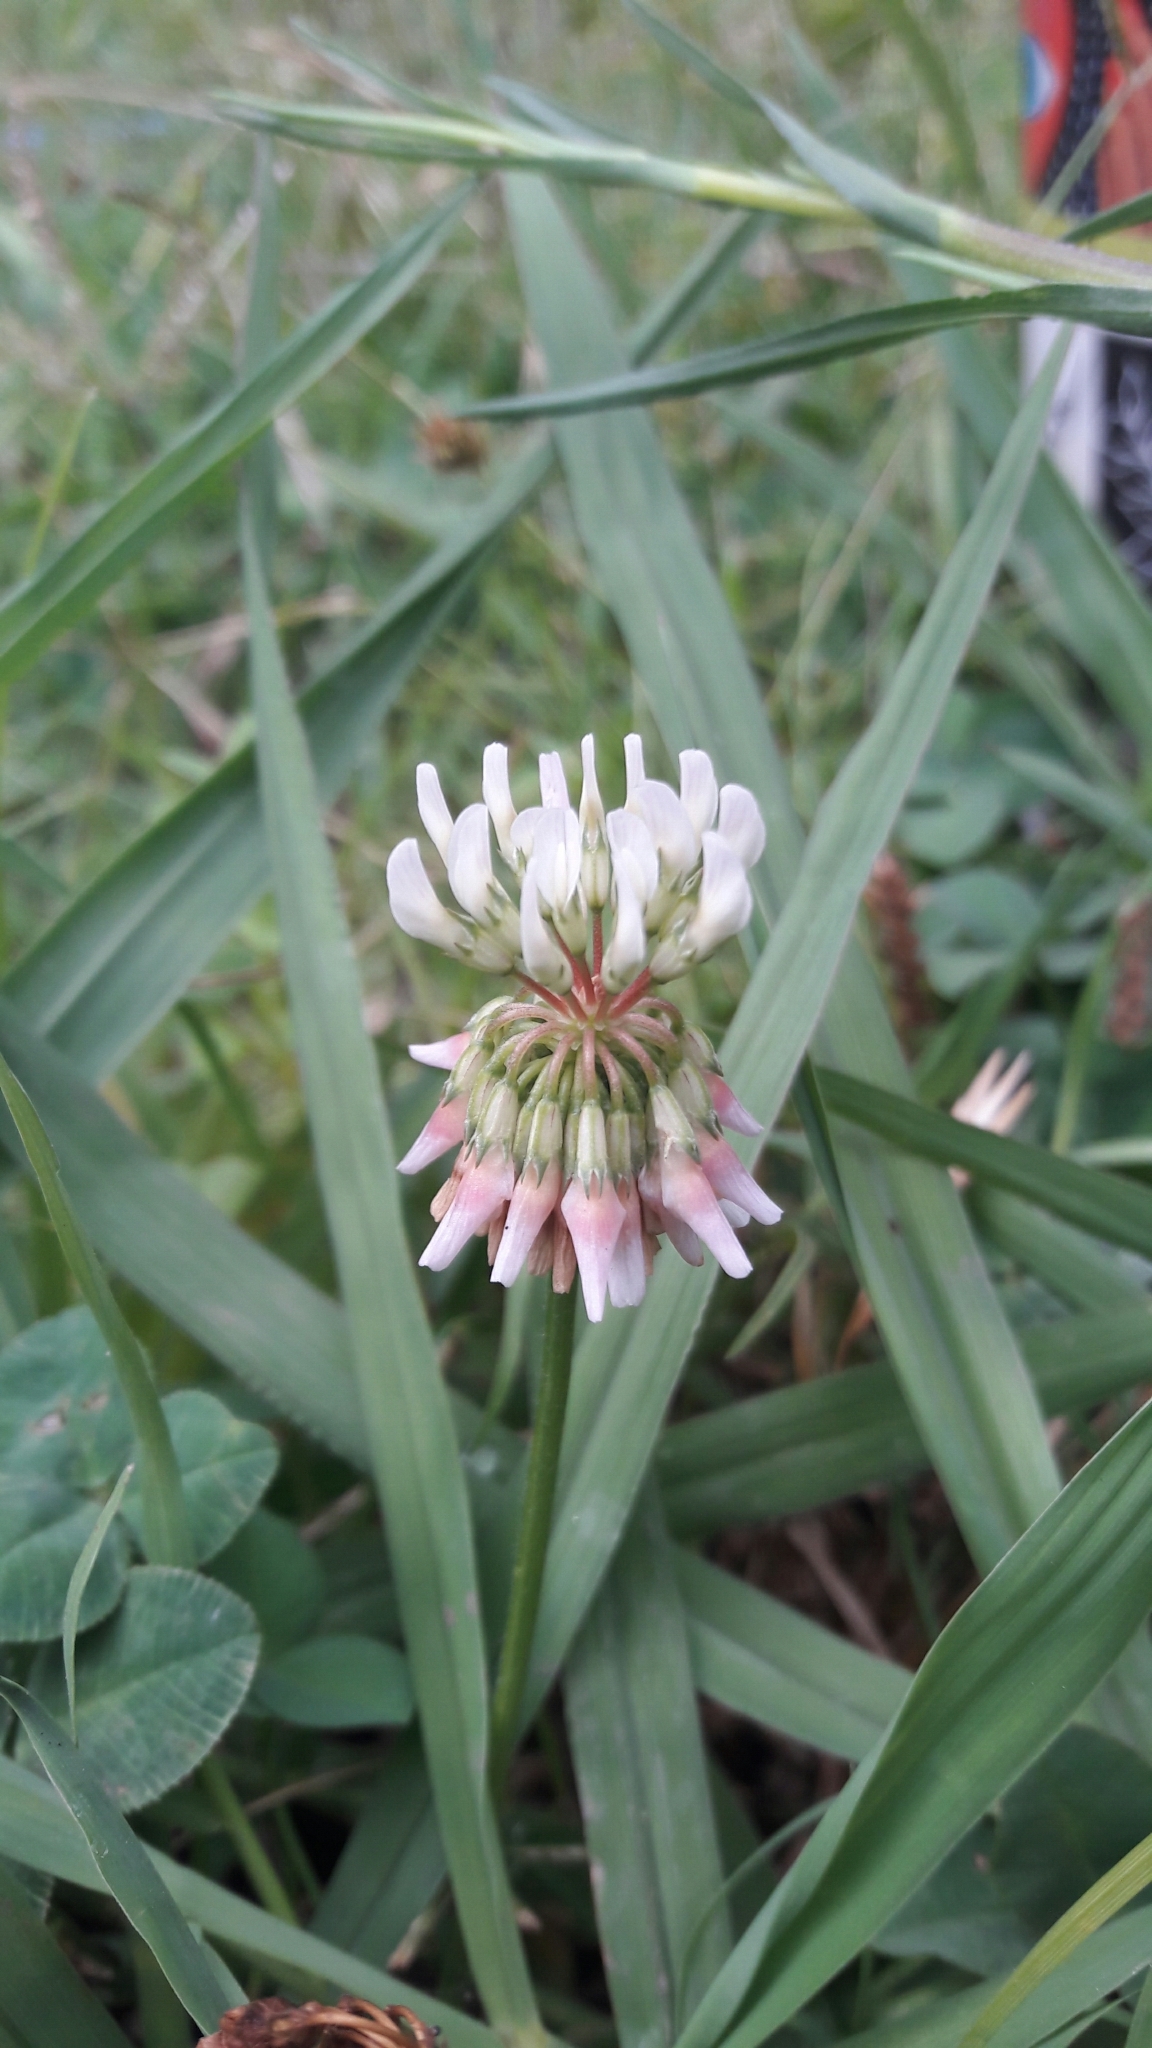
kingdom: Plantae
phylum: Tracheophyta
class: Magnoliopsida
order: Fabales
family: Fabaceae
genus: Trifolium
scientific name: Trifolium repens
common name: White clover
